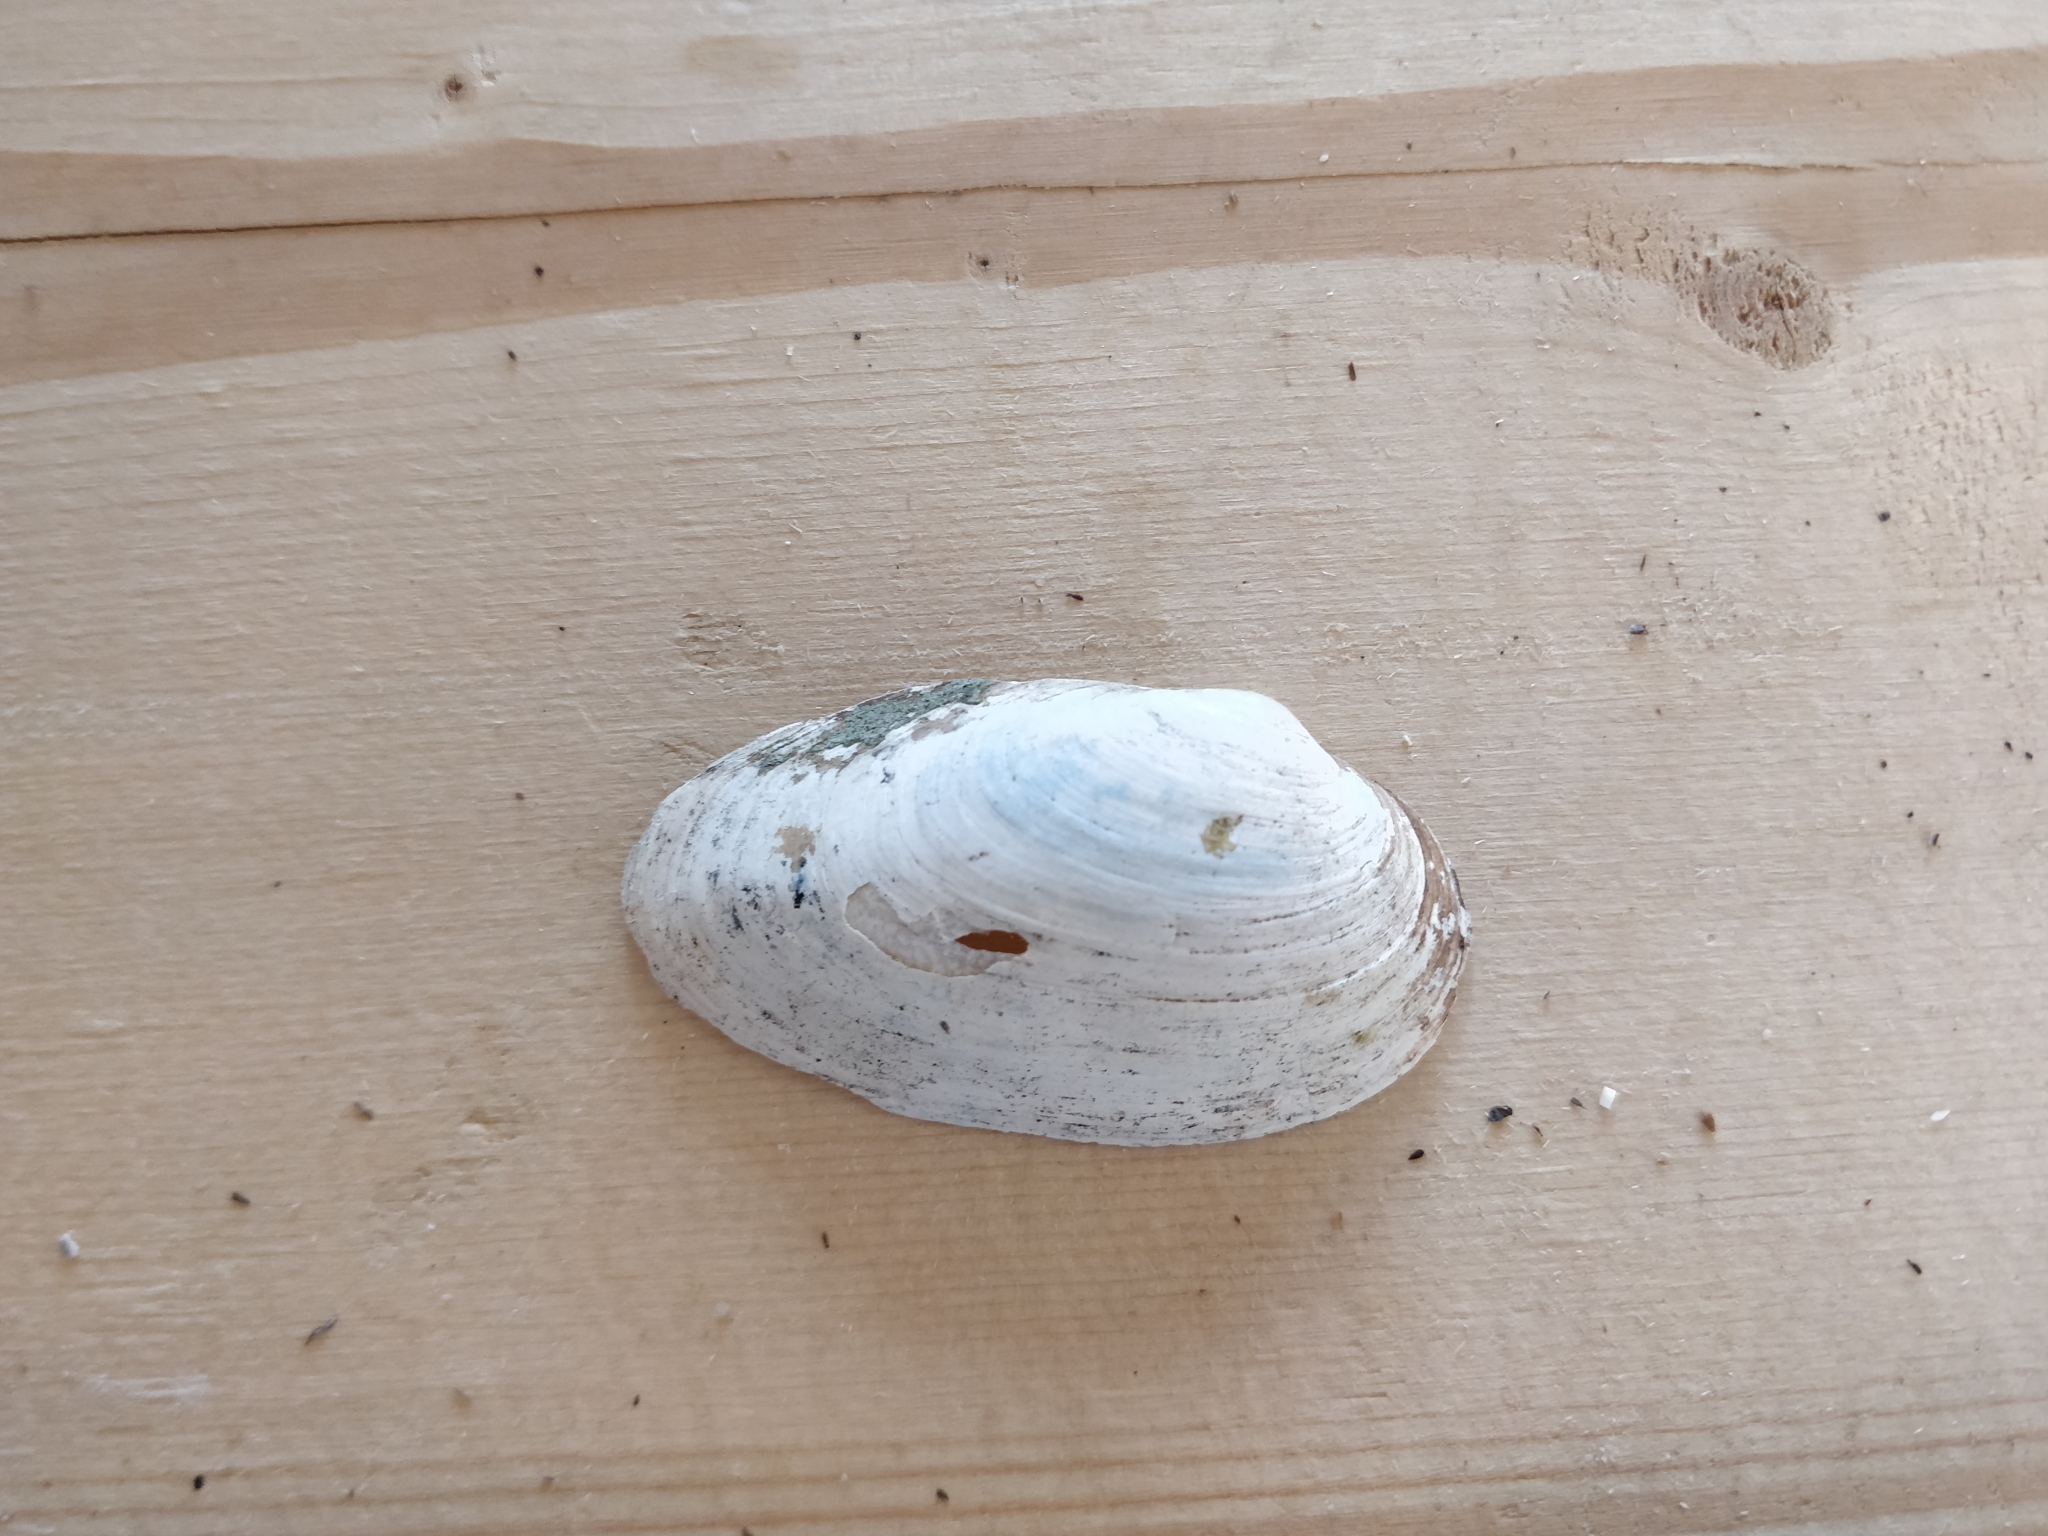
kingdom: Animalia
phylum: Mollusca
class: Bivalvia
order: Unionida
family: Unionidae
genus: Anodontoides
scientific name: Anodontoides ferussacianus
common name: Cylindrical papershell
